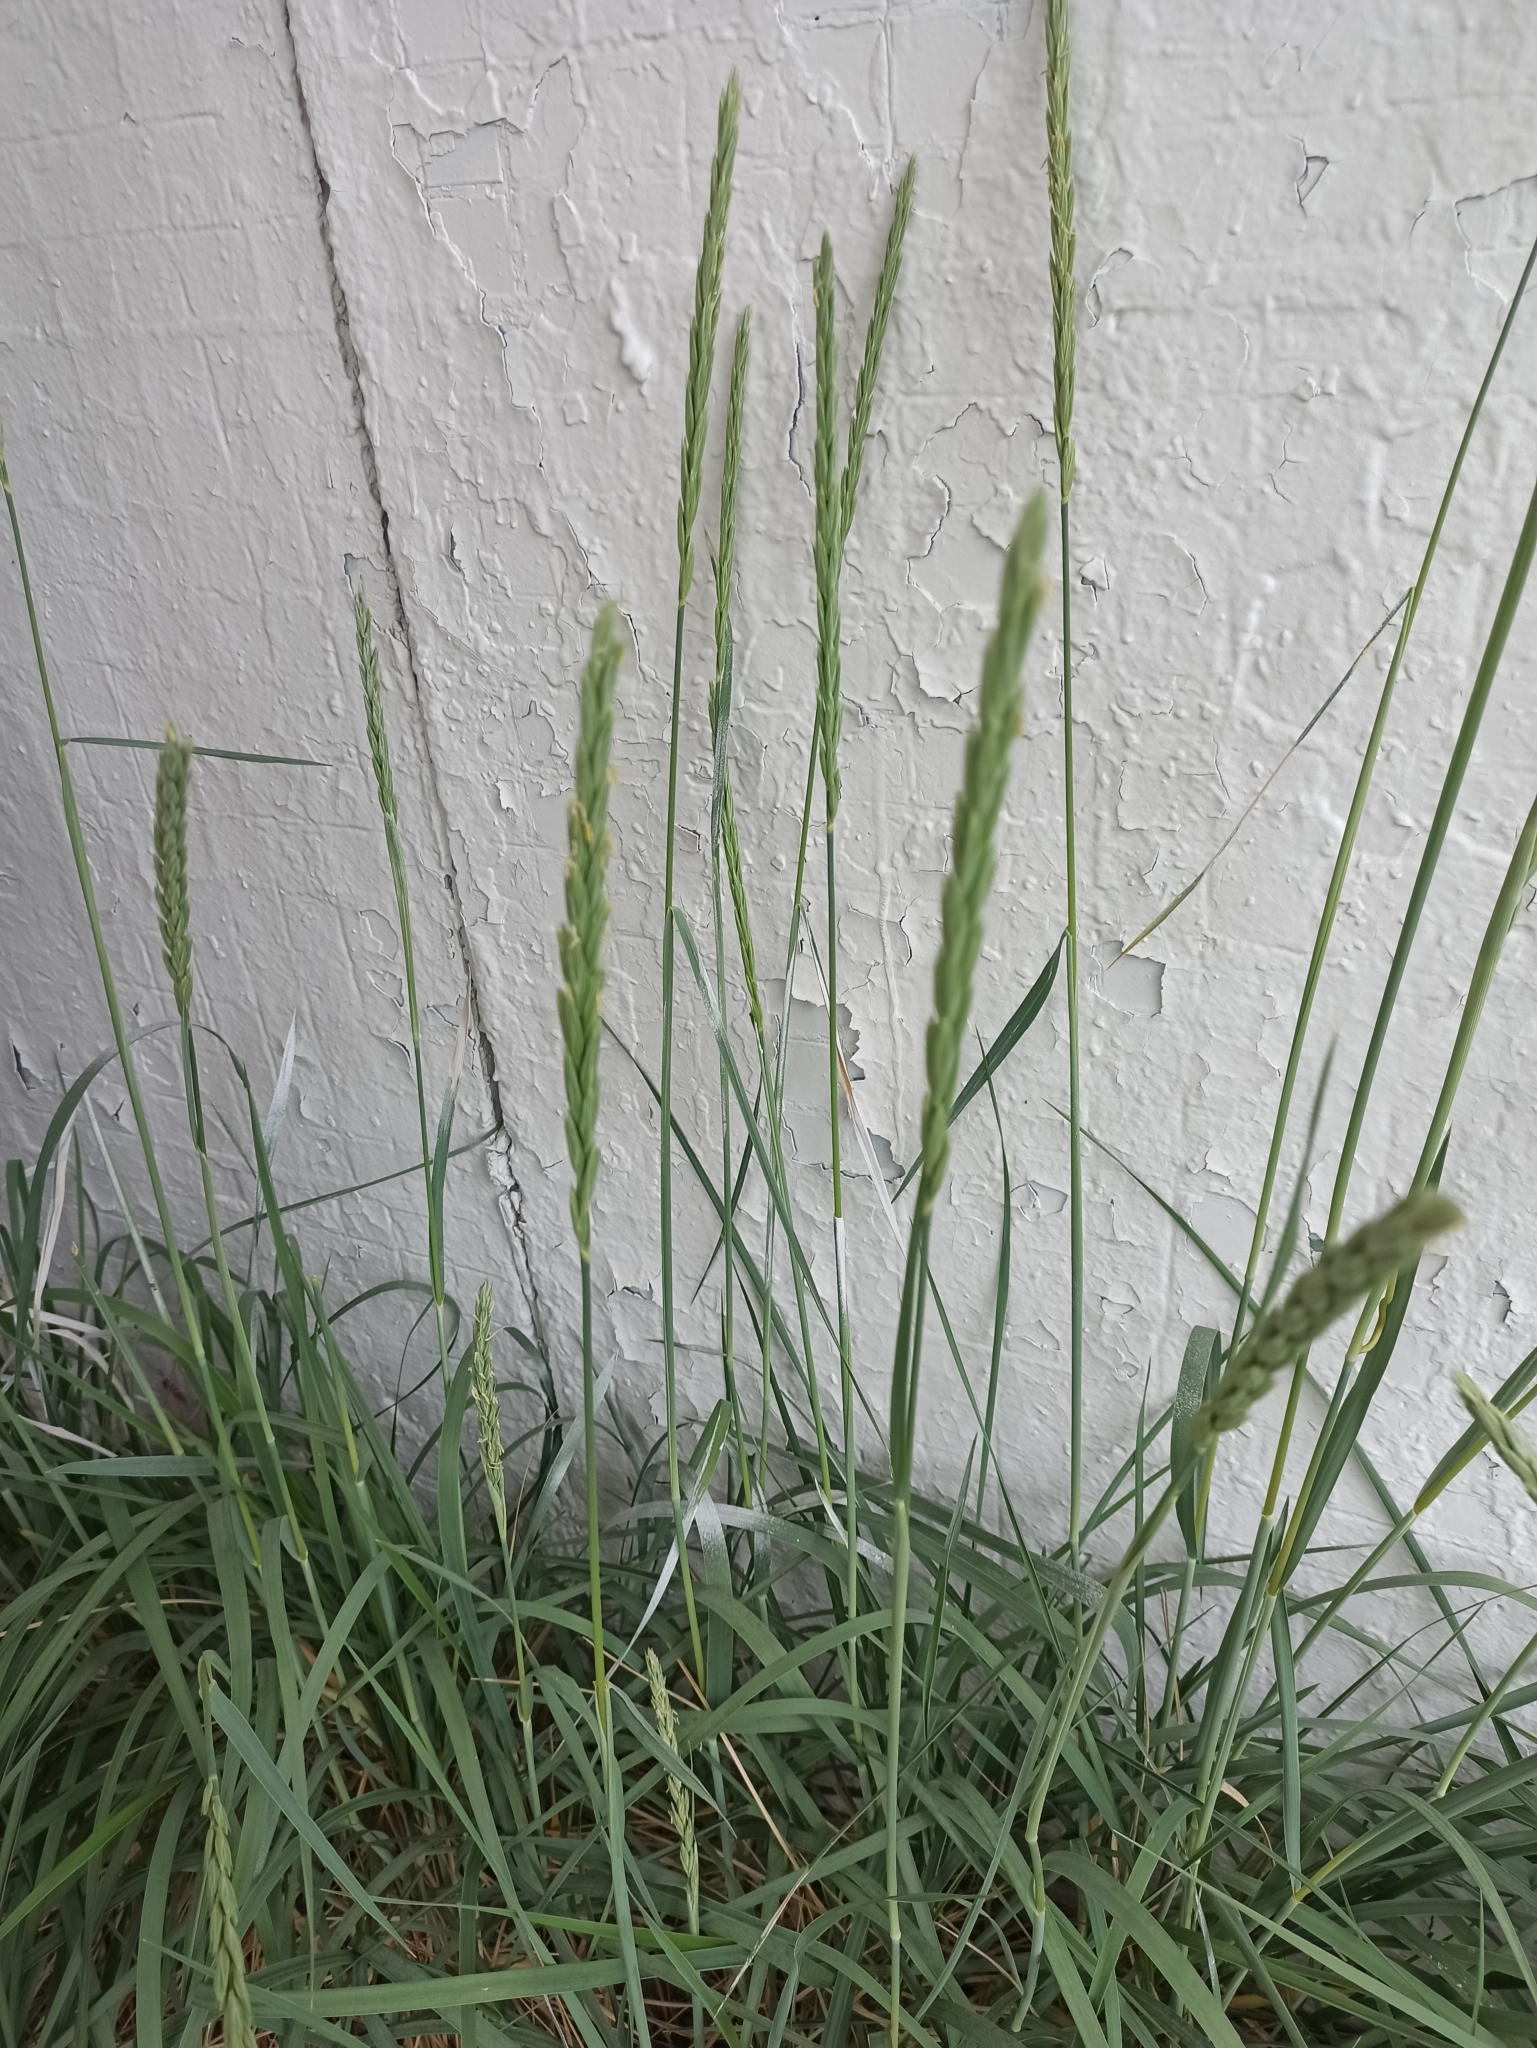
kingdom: Plantae
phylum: Tracheophyta
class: Liliopsida
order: Poales
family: Poaceae
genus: Leymus
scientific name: Leymus arenarius
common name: Lyme-grass
